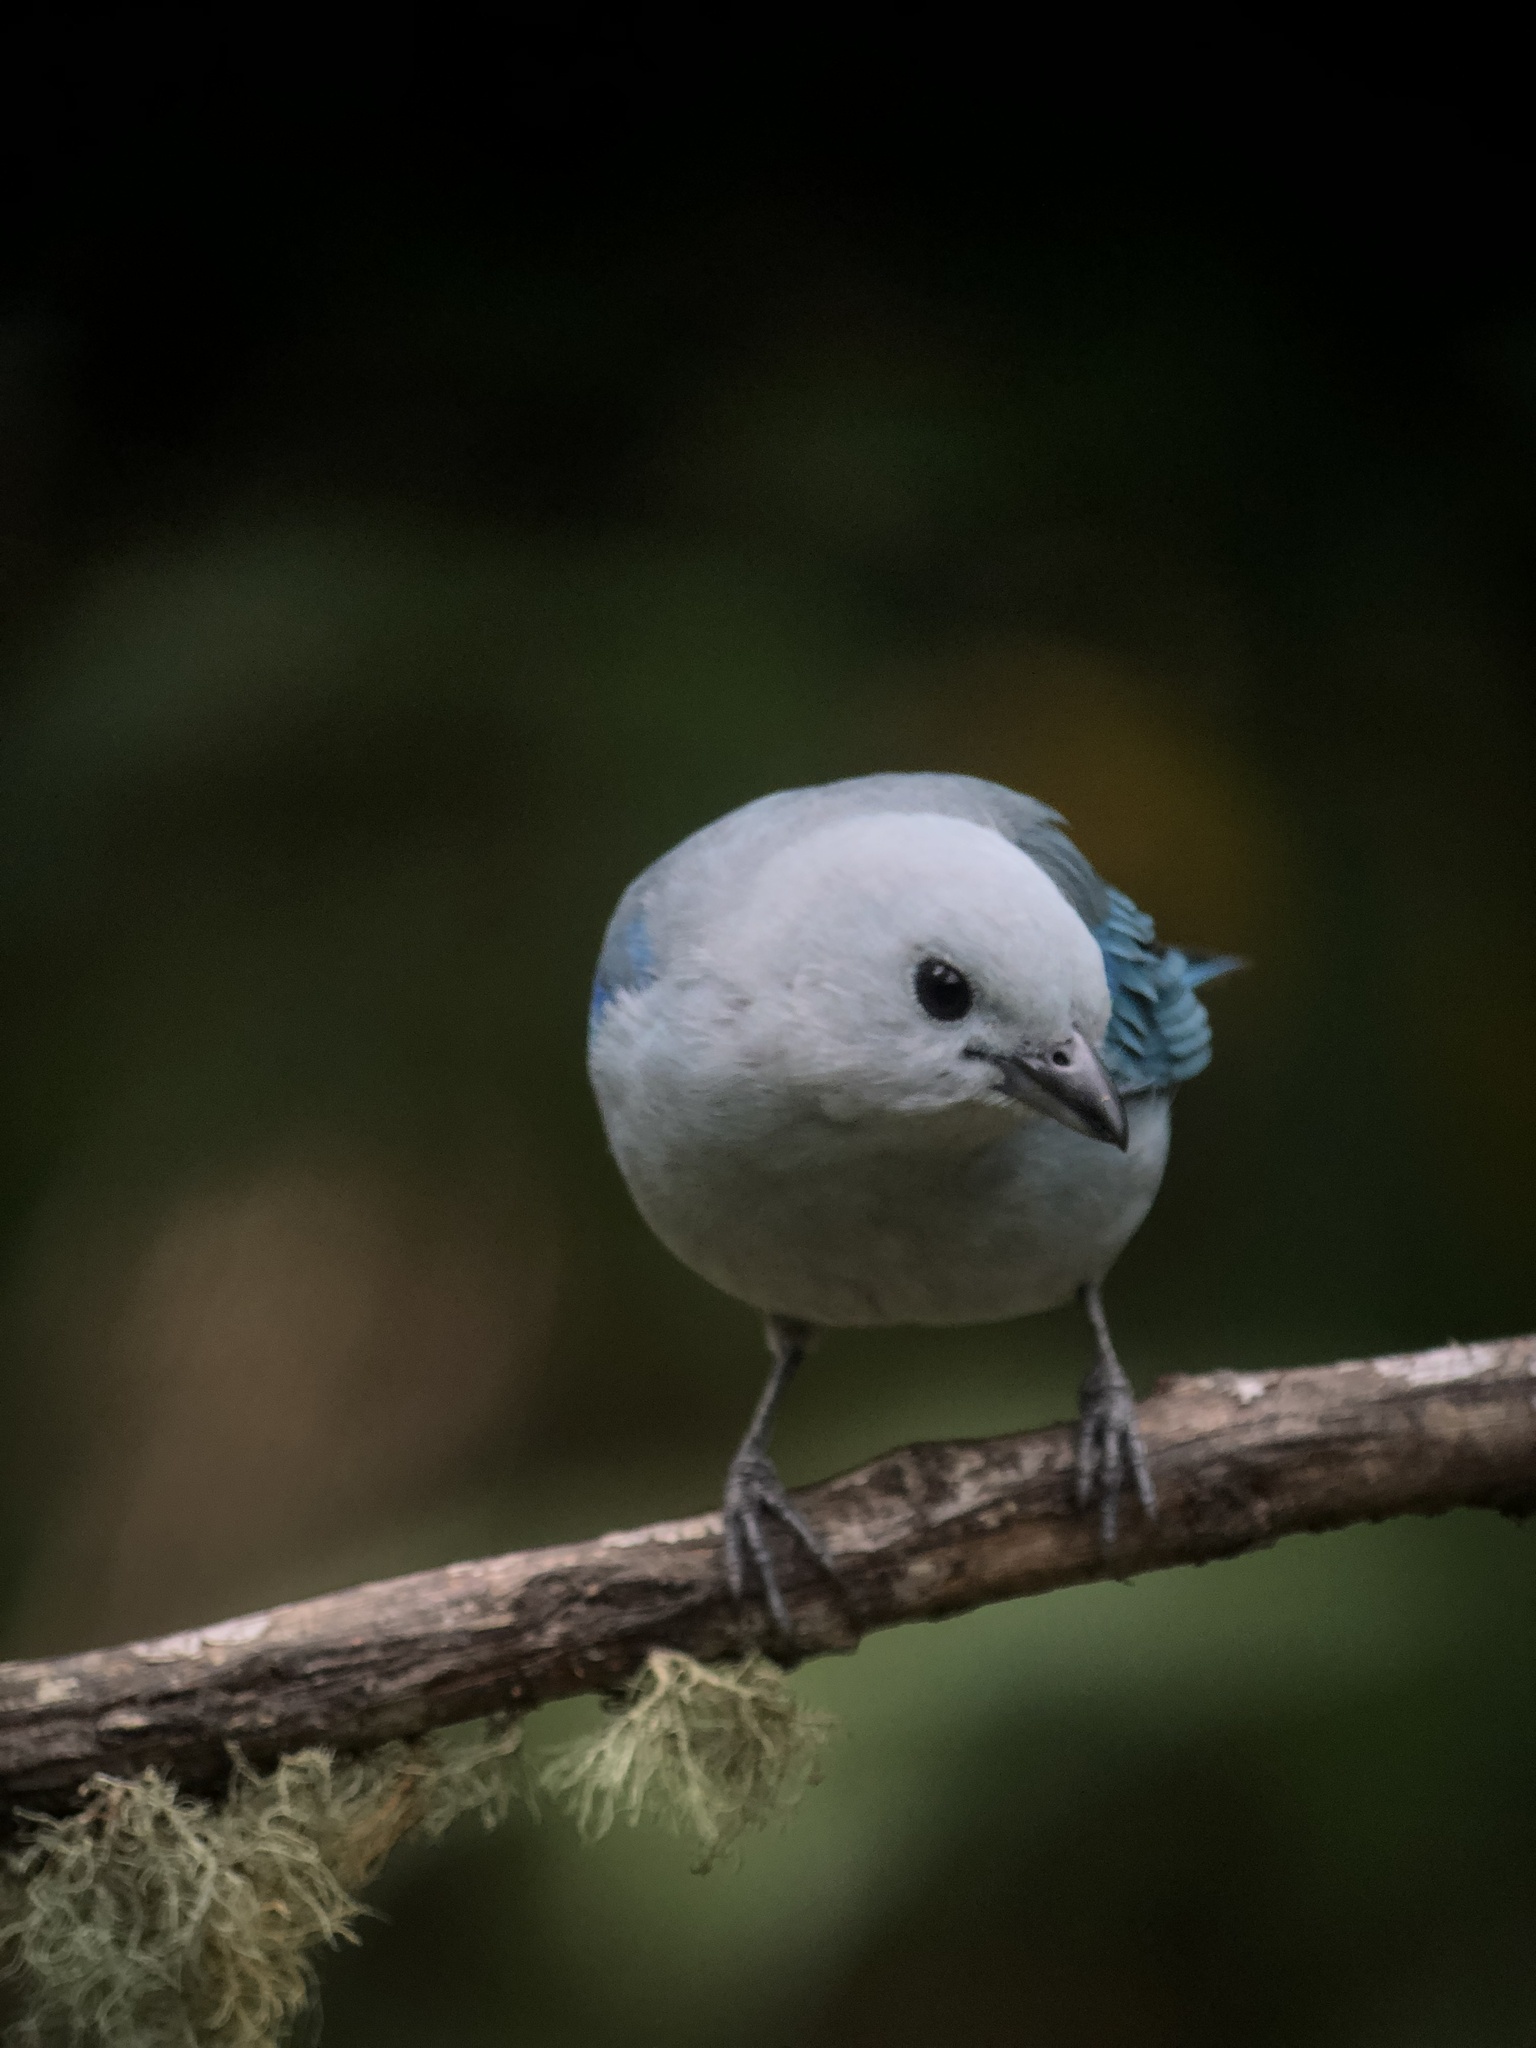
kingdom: Animalia
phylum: Chordata
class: Aves
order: Passeriformes
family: Thraupidae
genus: Thraupis
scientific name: Thraupis episcopus
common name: Blue-grey tanager
